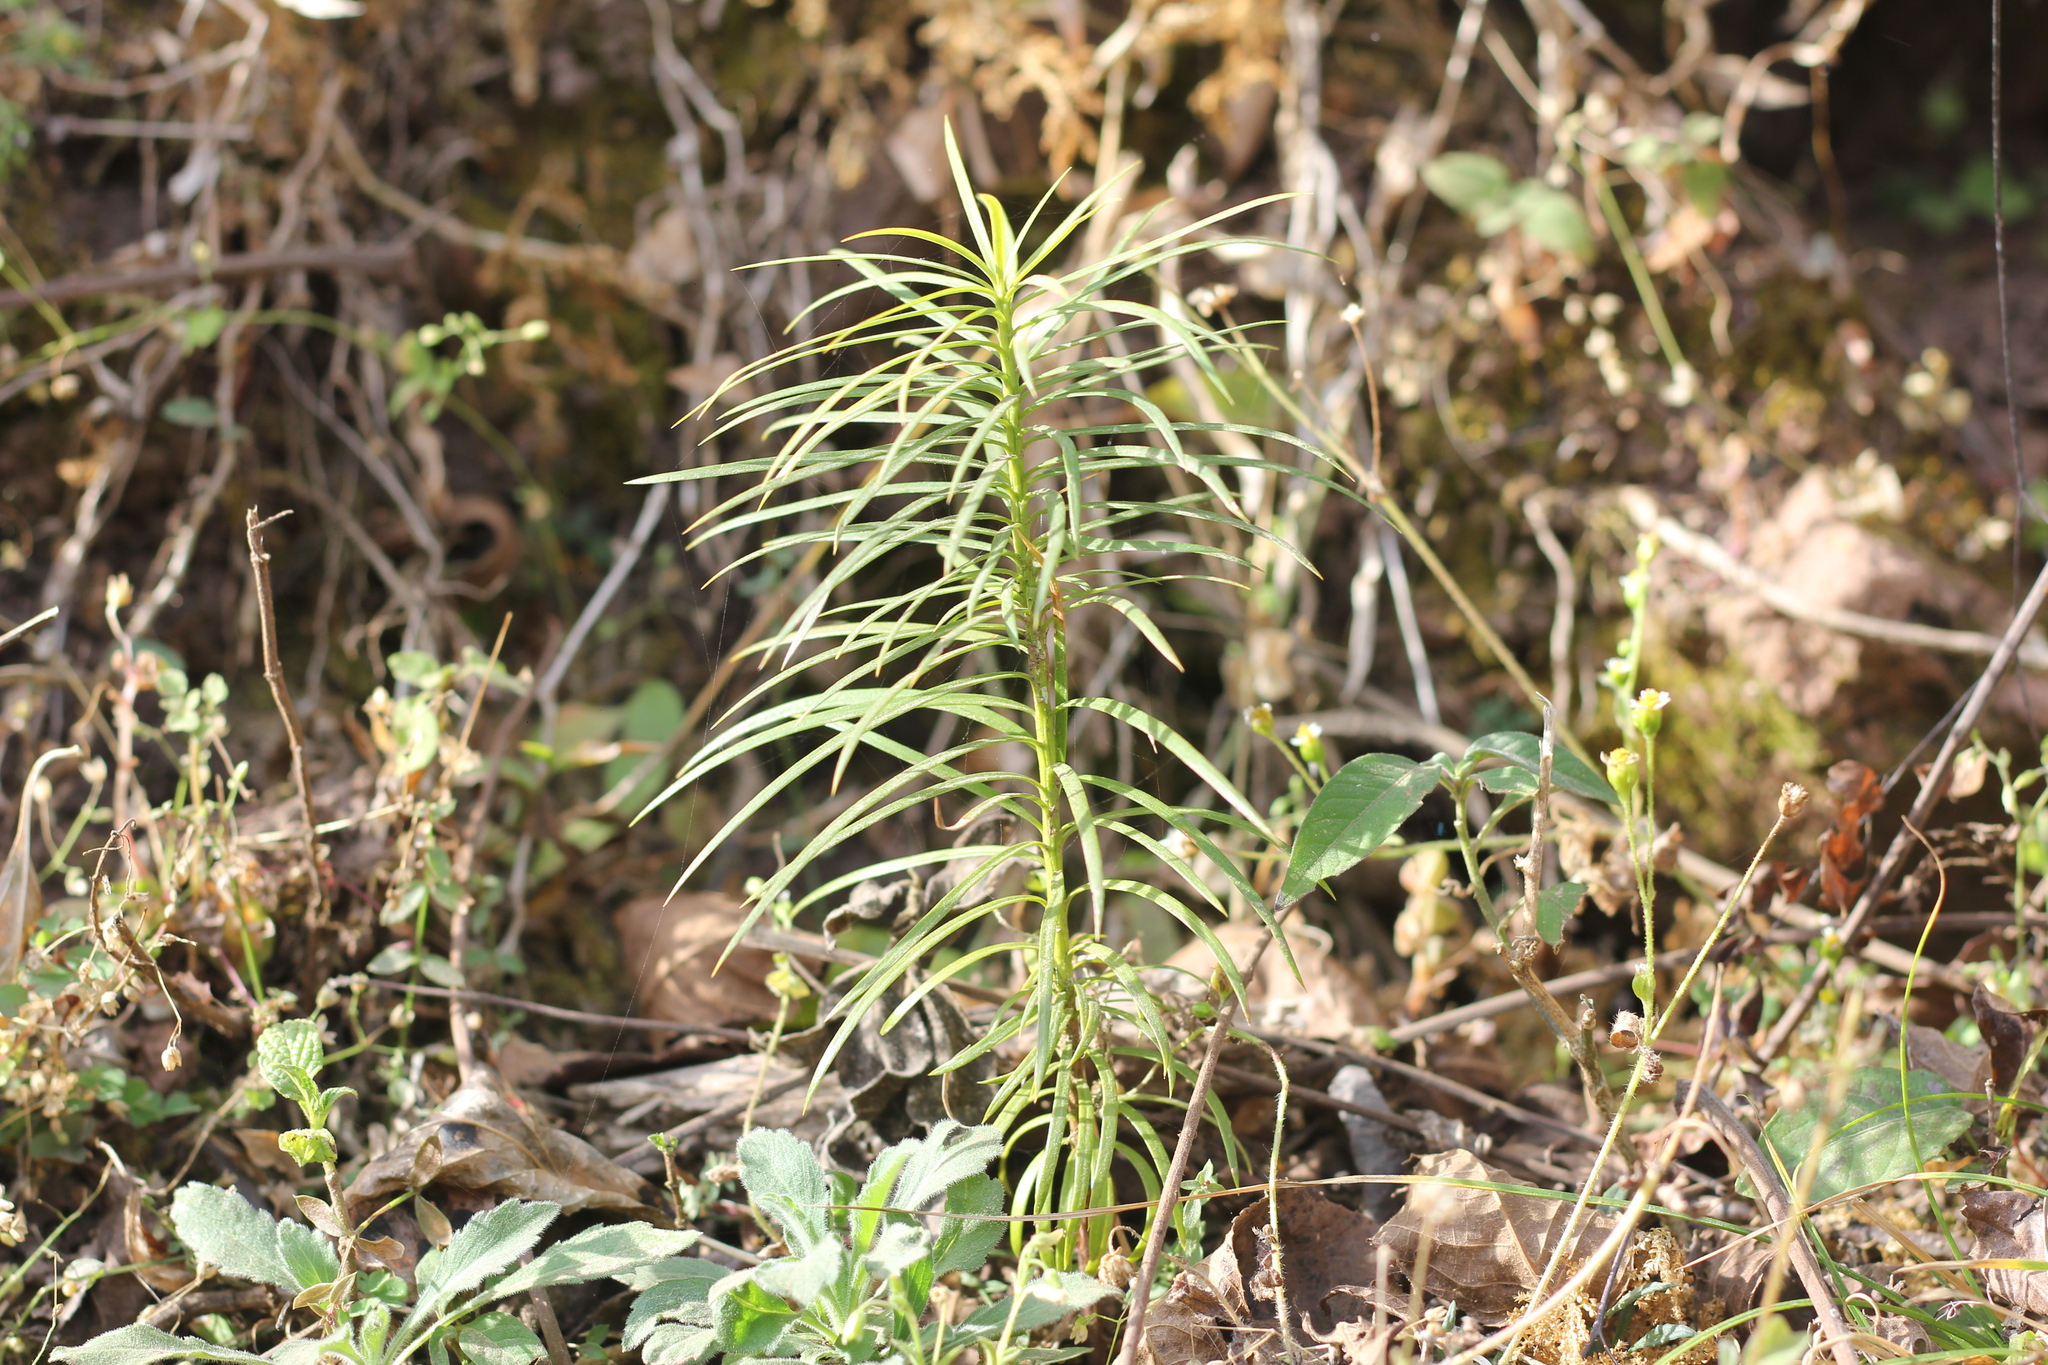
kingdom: Plantae
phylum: Tracheophyta
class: Pinopsida
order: Pinales
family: Podocarpaceae
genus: Podocarpus
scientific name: Podocarpus parlatorei
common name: Pino blanco
